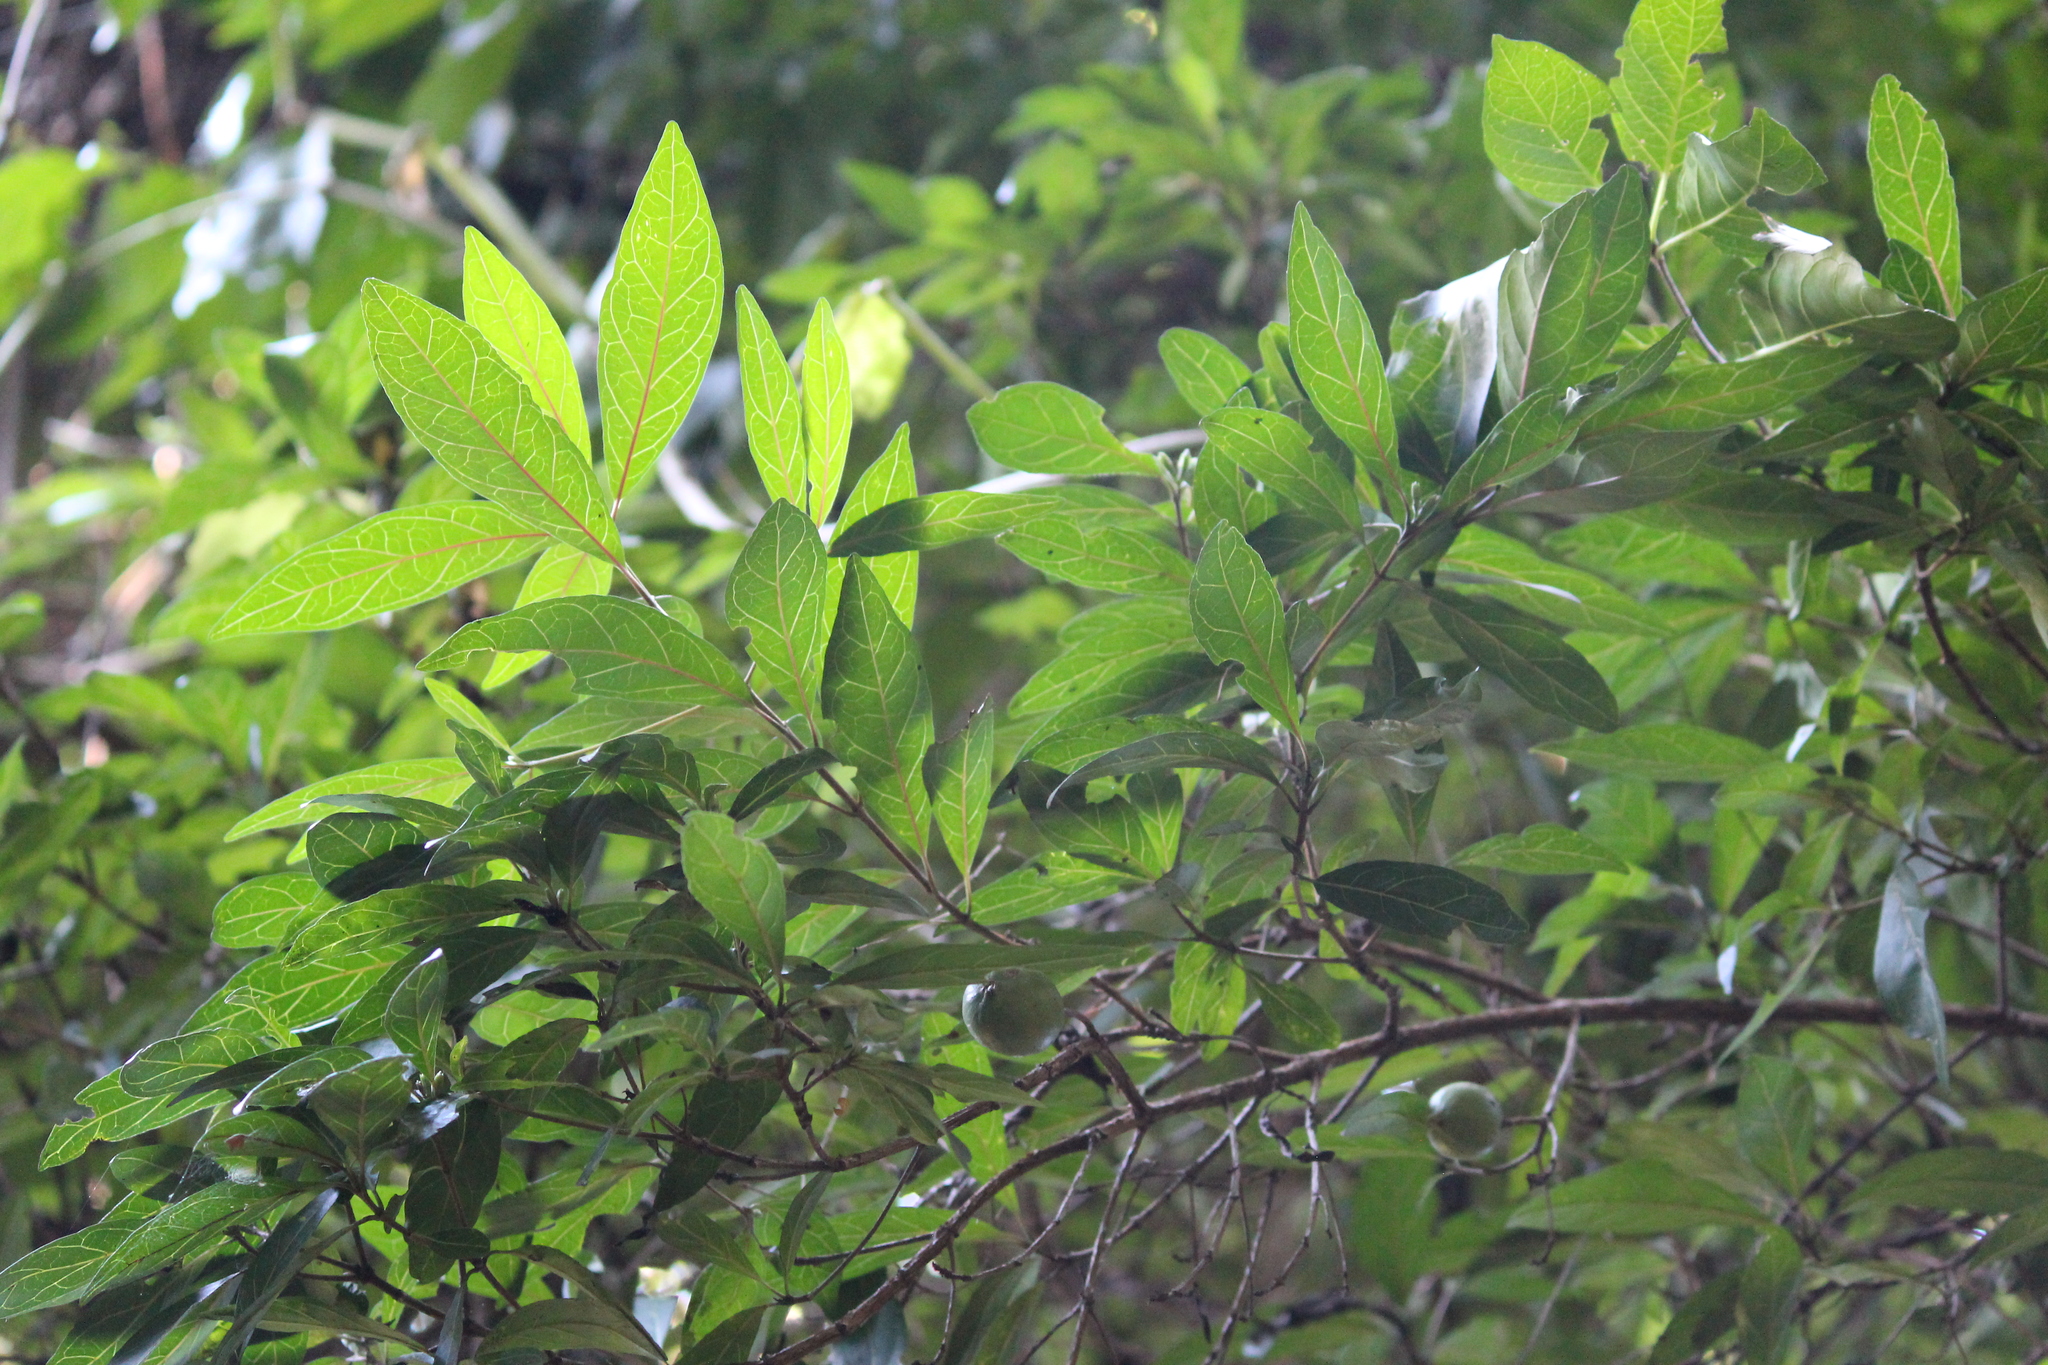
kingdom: Plantae
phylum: Tracheophyta
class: Magnoliopsida
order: Gentianales
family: Rubiaceae
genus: Rothmannia
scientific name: Rothmannia globosa
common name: September bells
